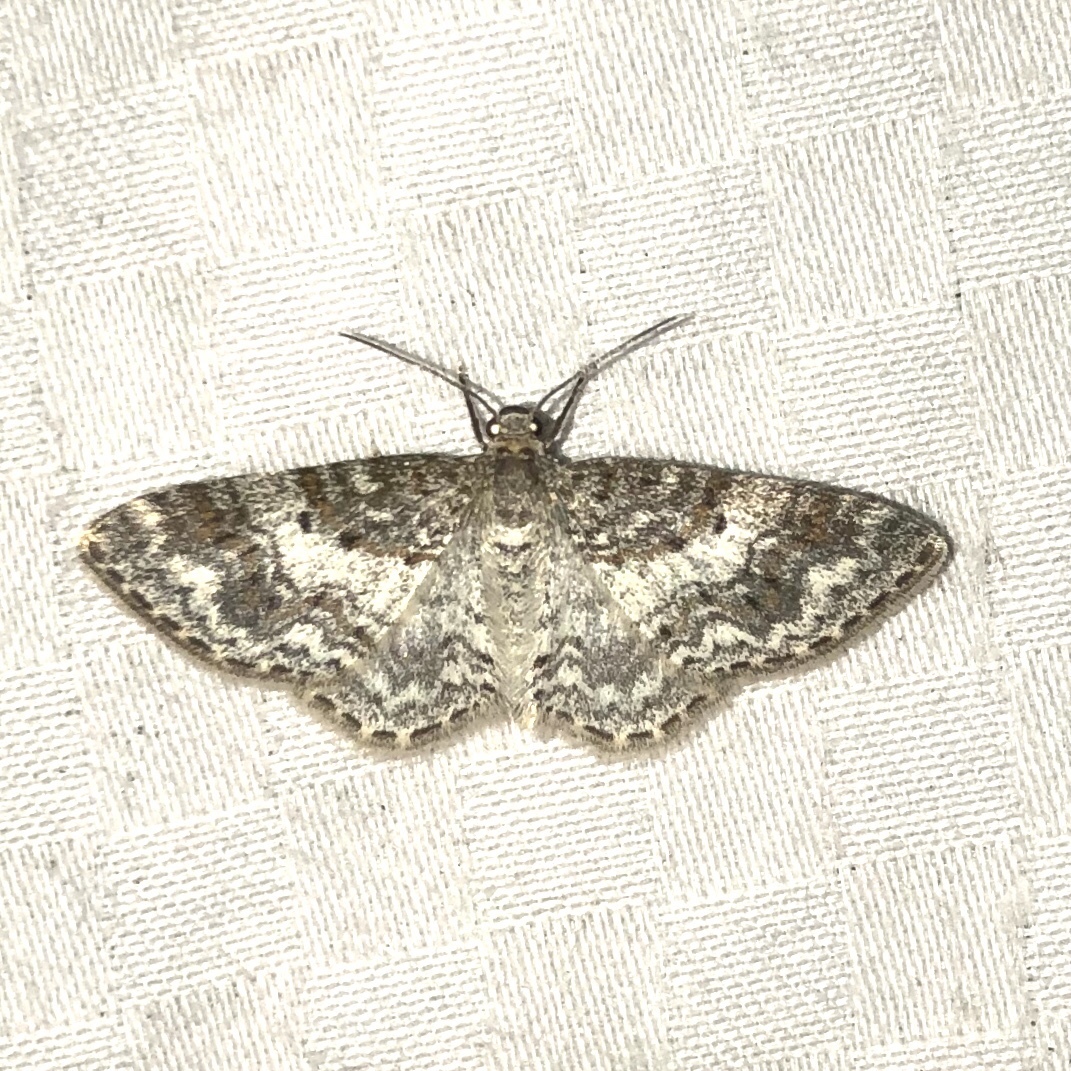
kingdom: Animalia
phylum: Arthropoda
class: Insecta
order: Lepidoptera
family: Geometridae
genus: Hydrelia
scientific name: Hydrelia inornata
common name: Unadorned carpet moth
